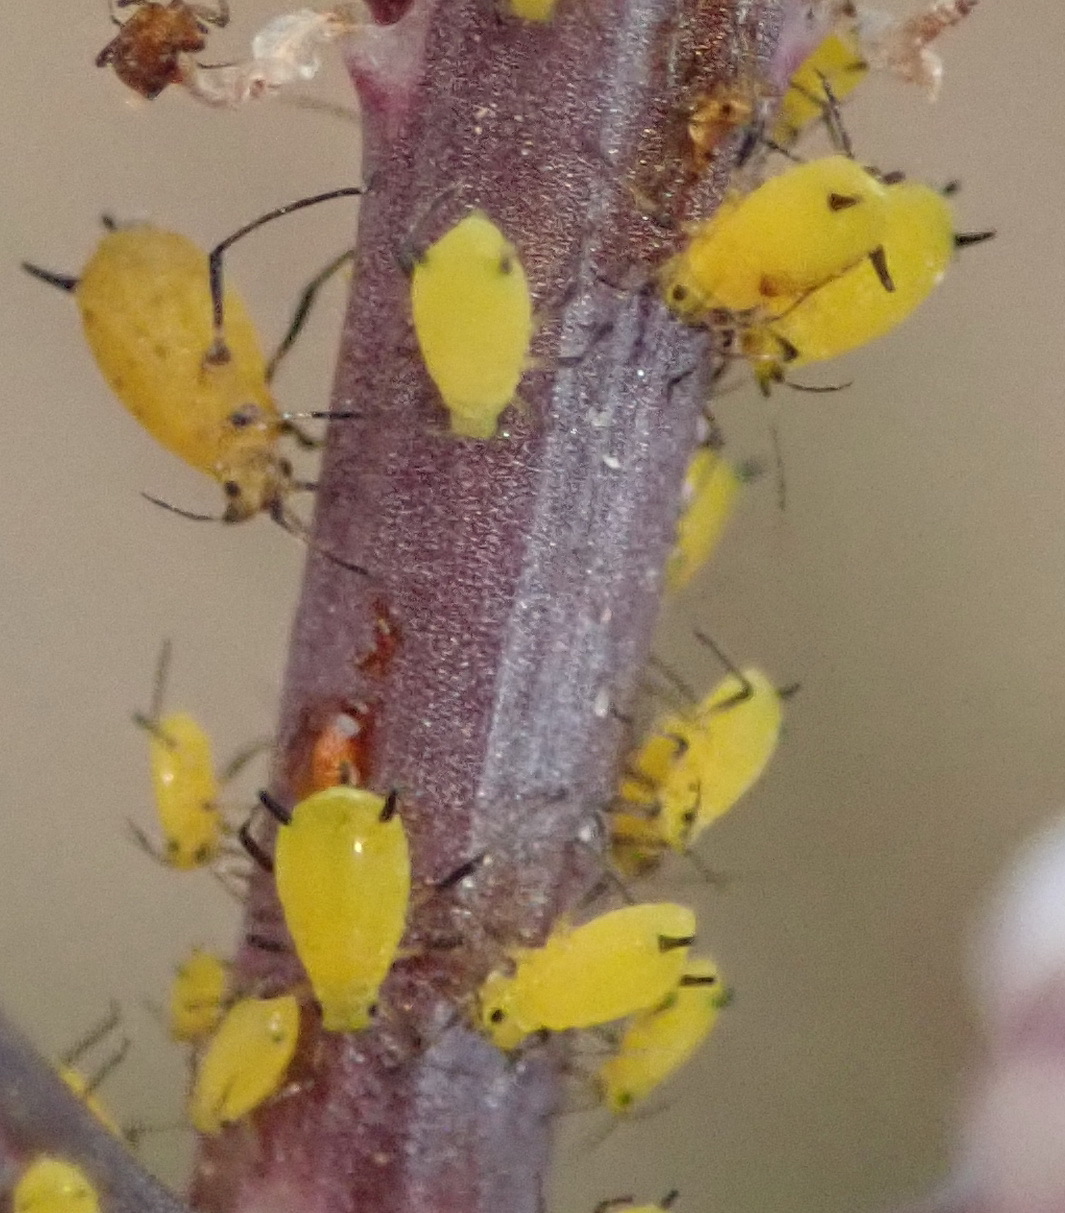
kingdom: Animalia
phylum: Arthropoda
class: Insecta
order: Hemiptera
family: Aphididae
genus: Aphis
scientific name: Aphis nerii
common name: Oleander aphid
